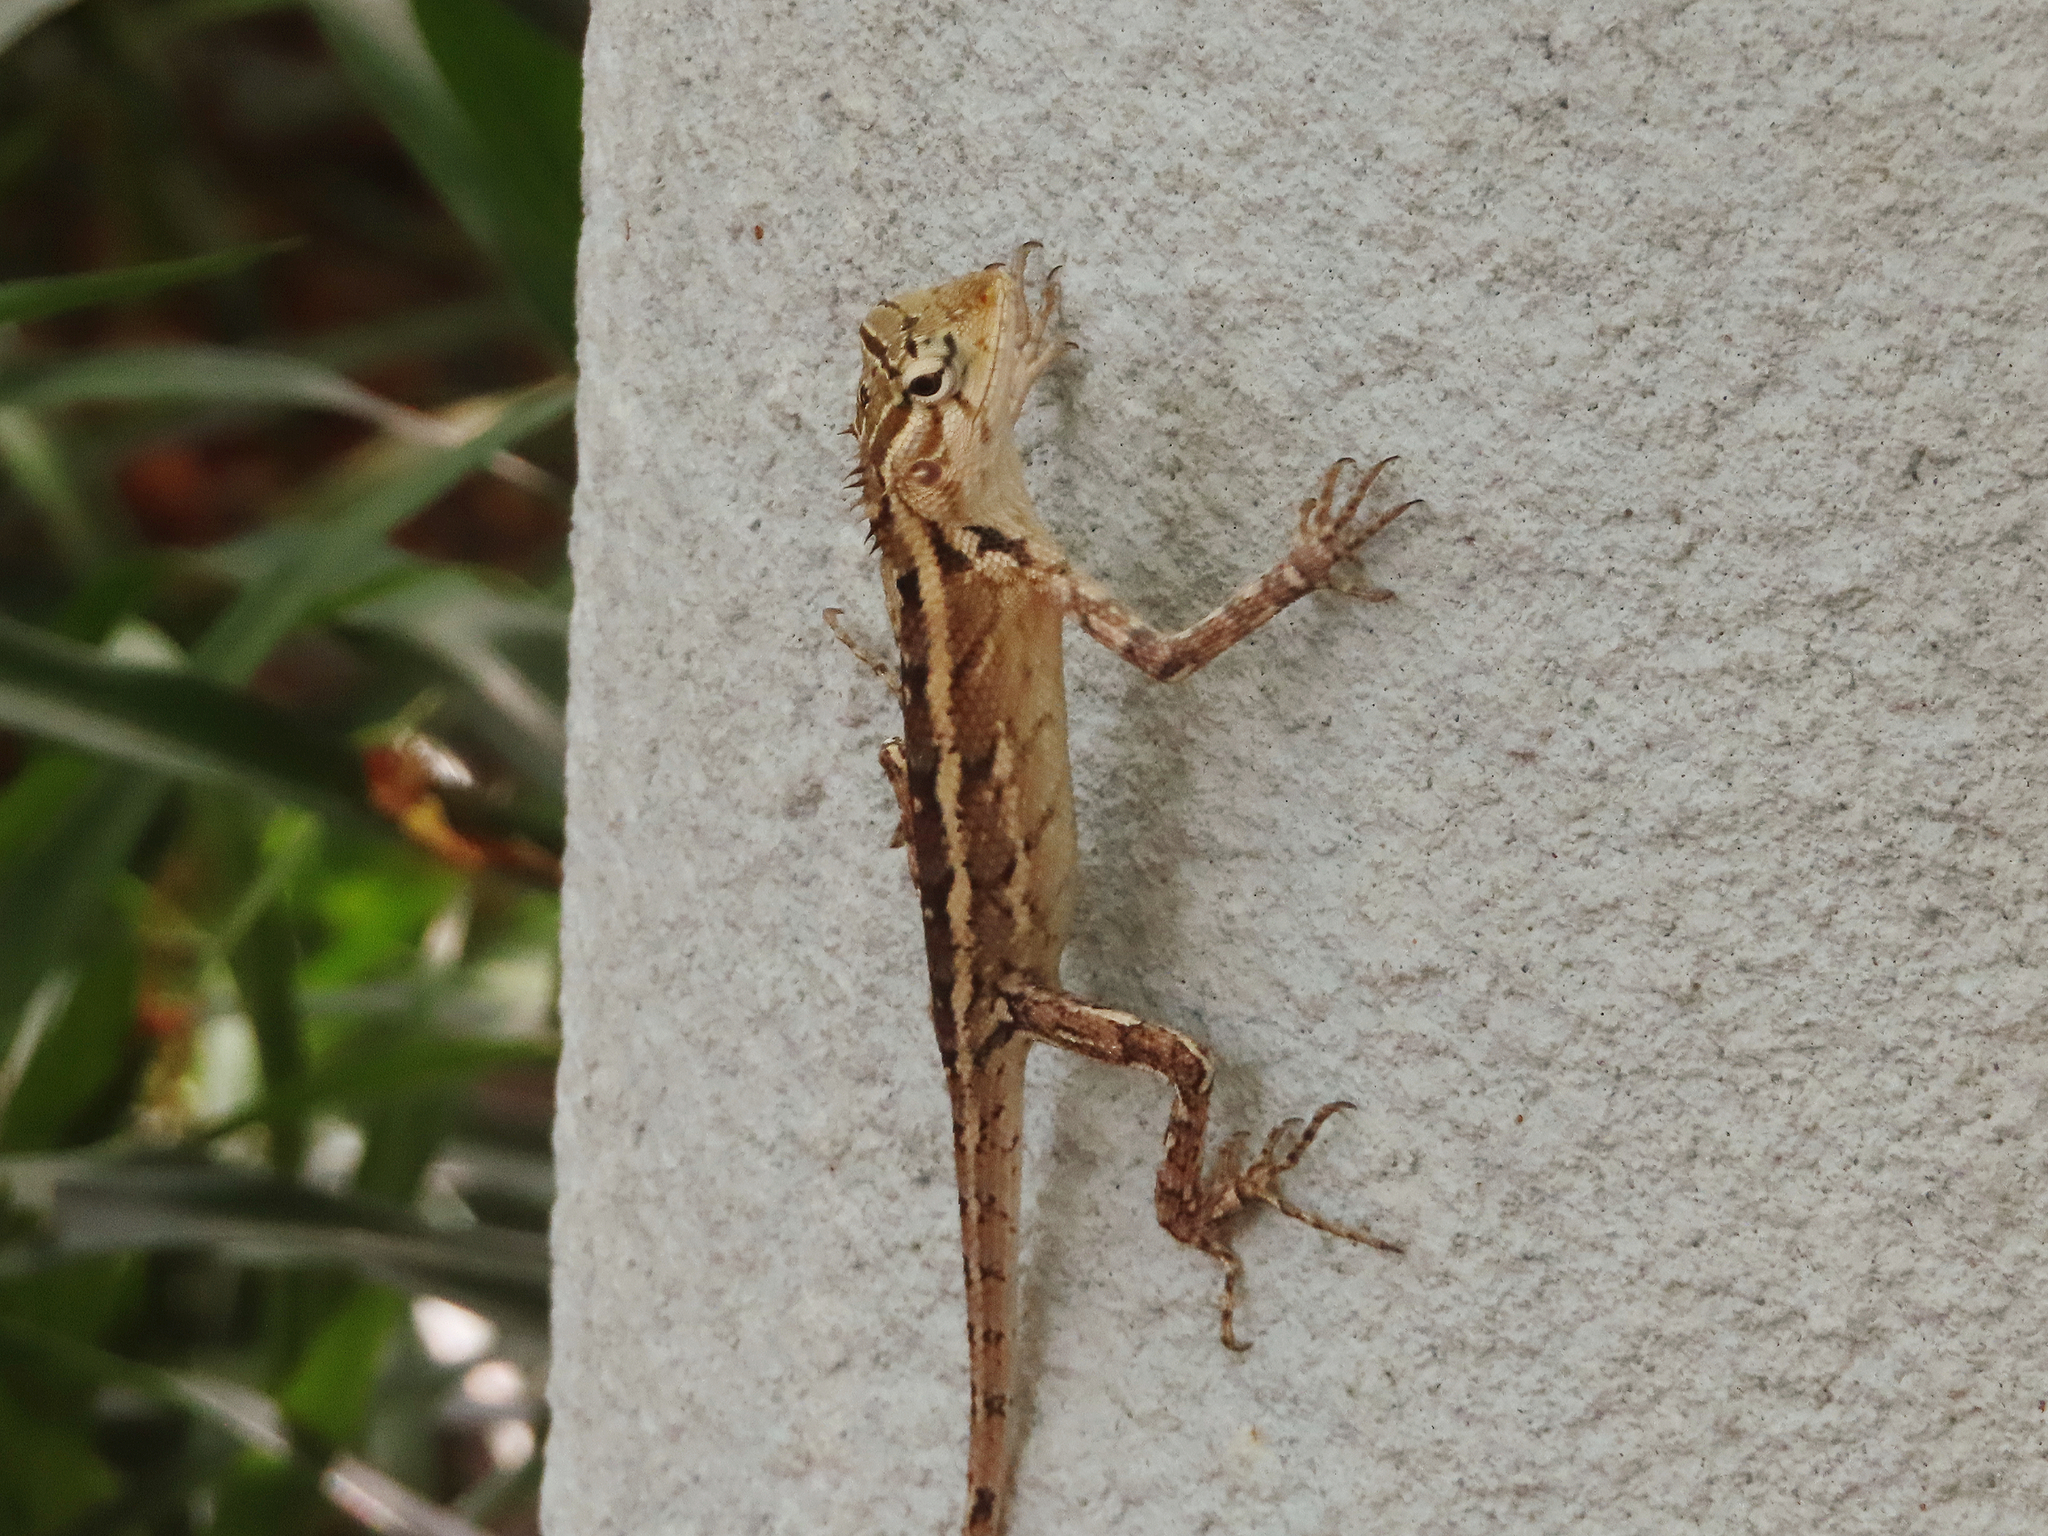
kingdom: Animalia
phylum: Chordata
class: Squamata
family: Agamidae
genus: Calotes
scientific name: Calotes versicolor
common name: Oriental garden lizard
